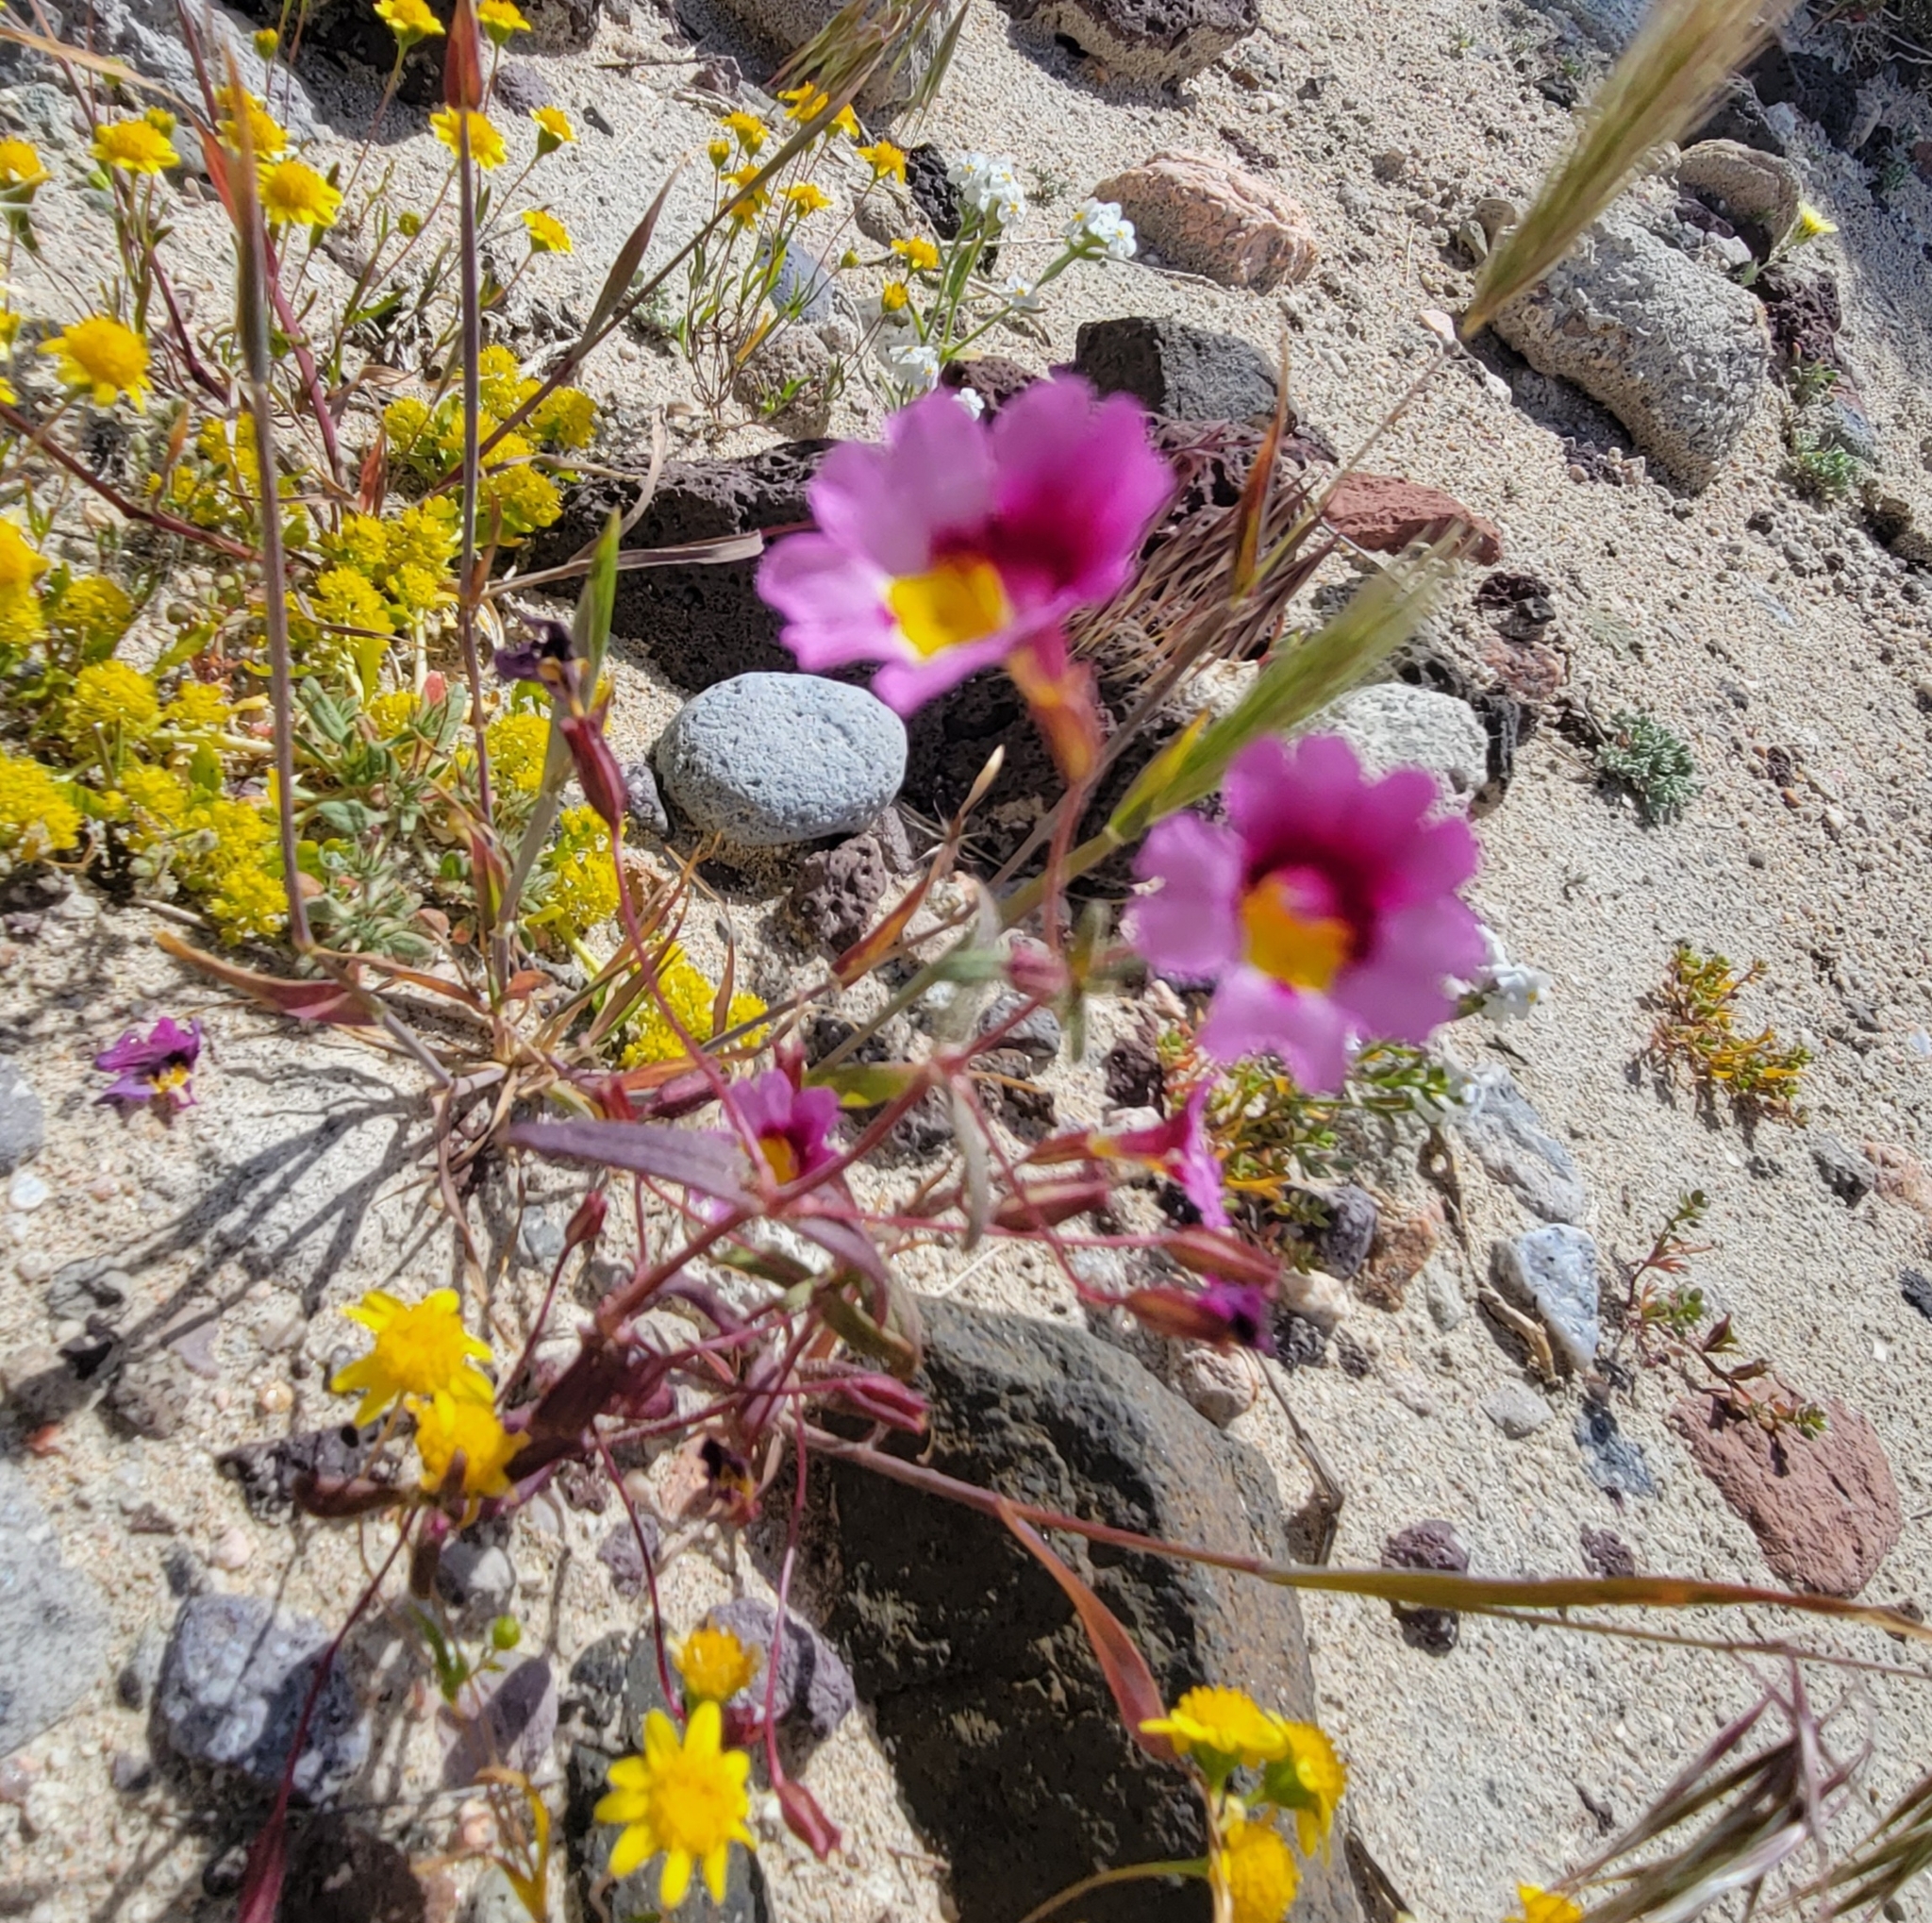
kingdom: Plantae
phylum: Tracheophyta
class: Magnoliopsida
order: Lamiales
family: Phrymaceae
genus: Erythranthe
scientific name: Erythranthe rhodopetra
